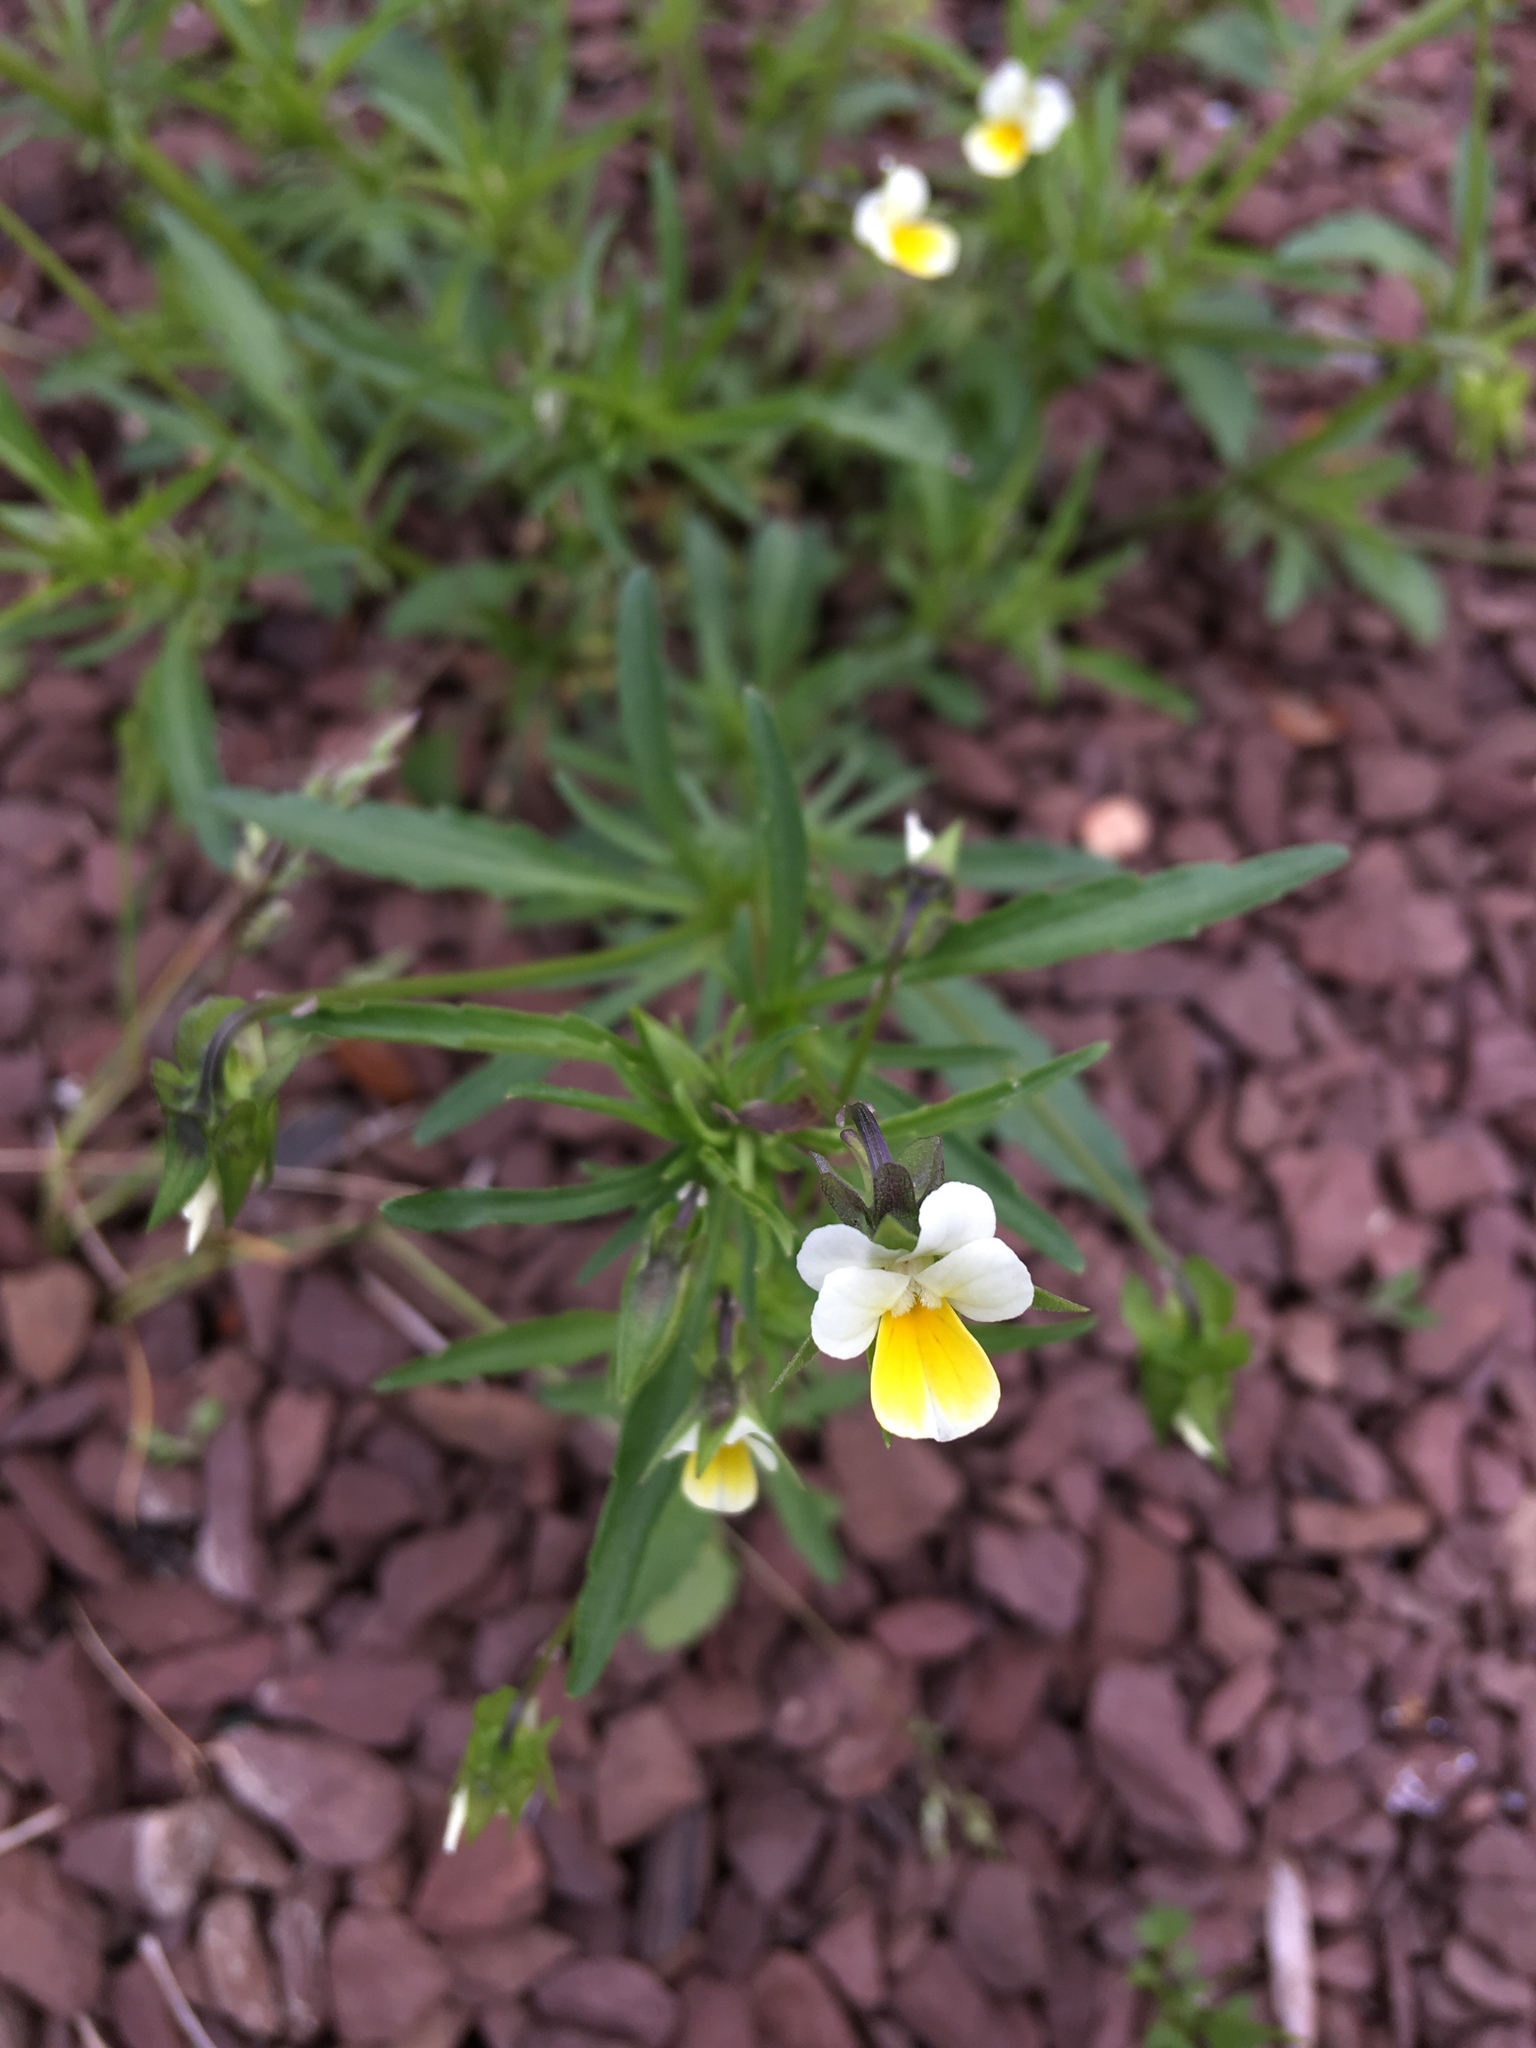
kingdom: Plantae
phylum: Tracheophyta
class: Magnoliopsida
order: Malpighiales
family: Violaceae
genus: Viola
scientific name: Viola arvensis
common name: Field pansy
